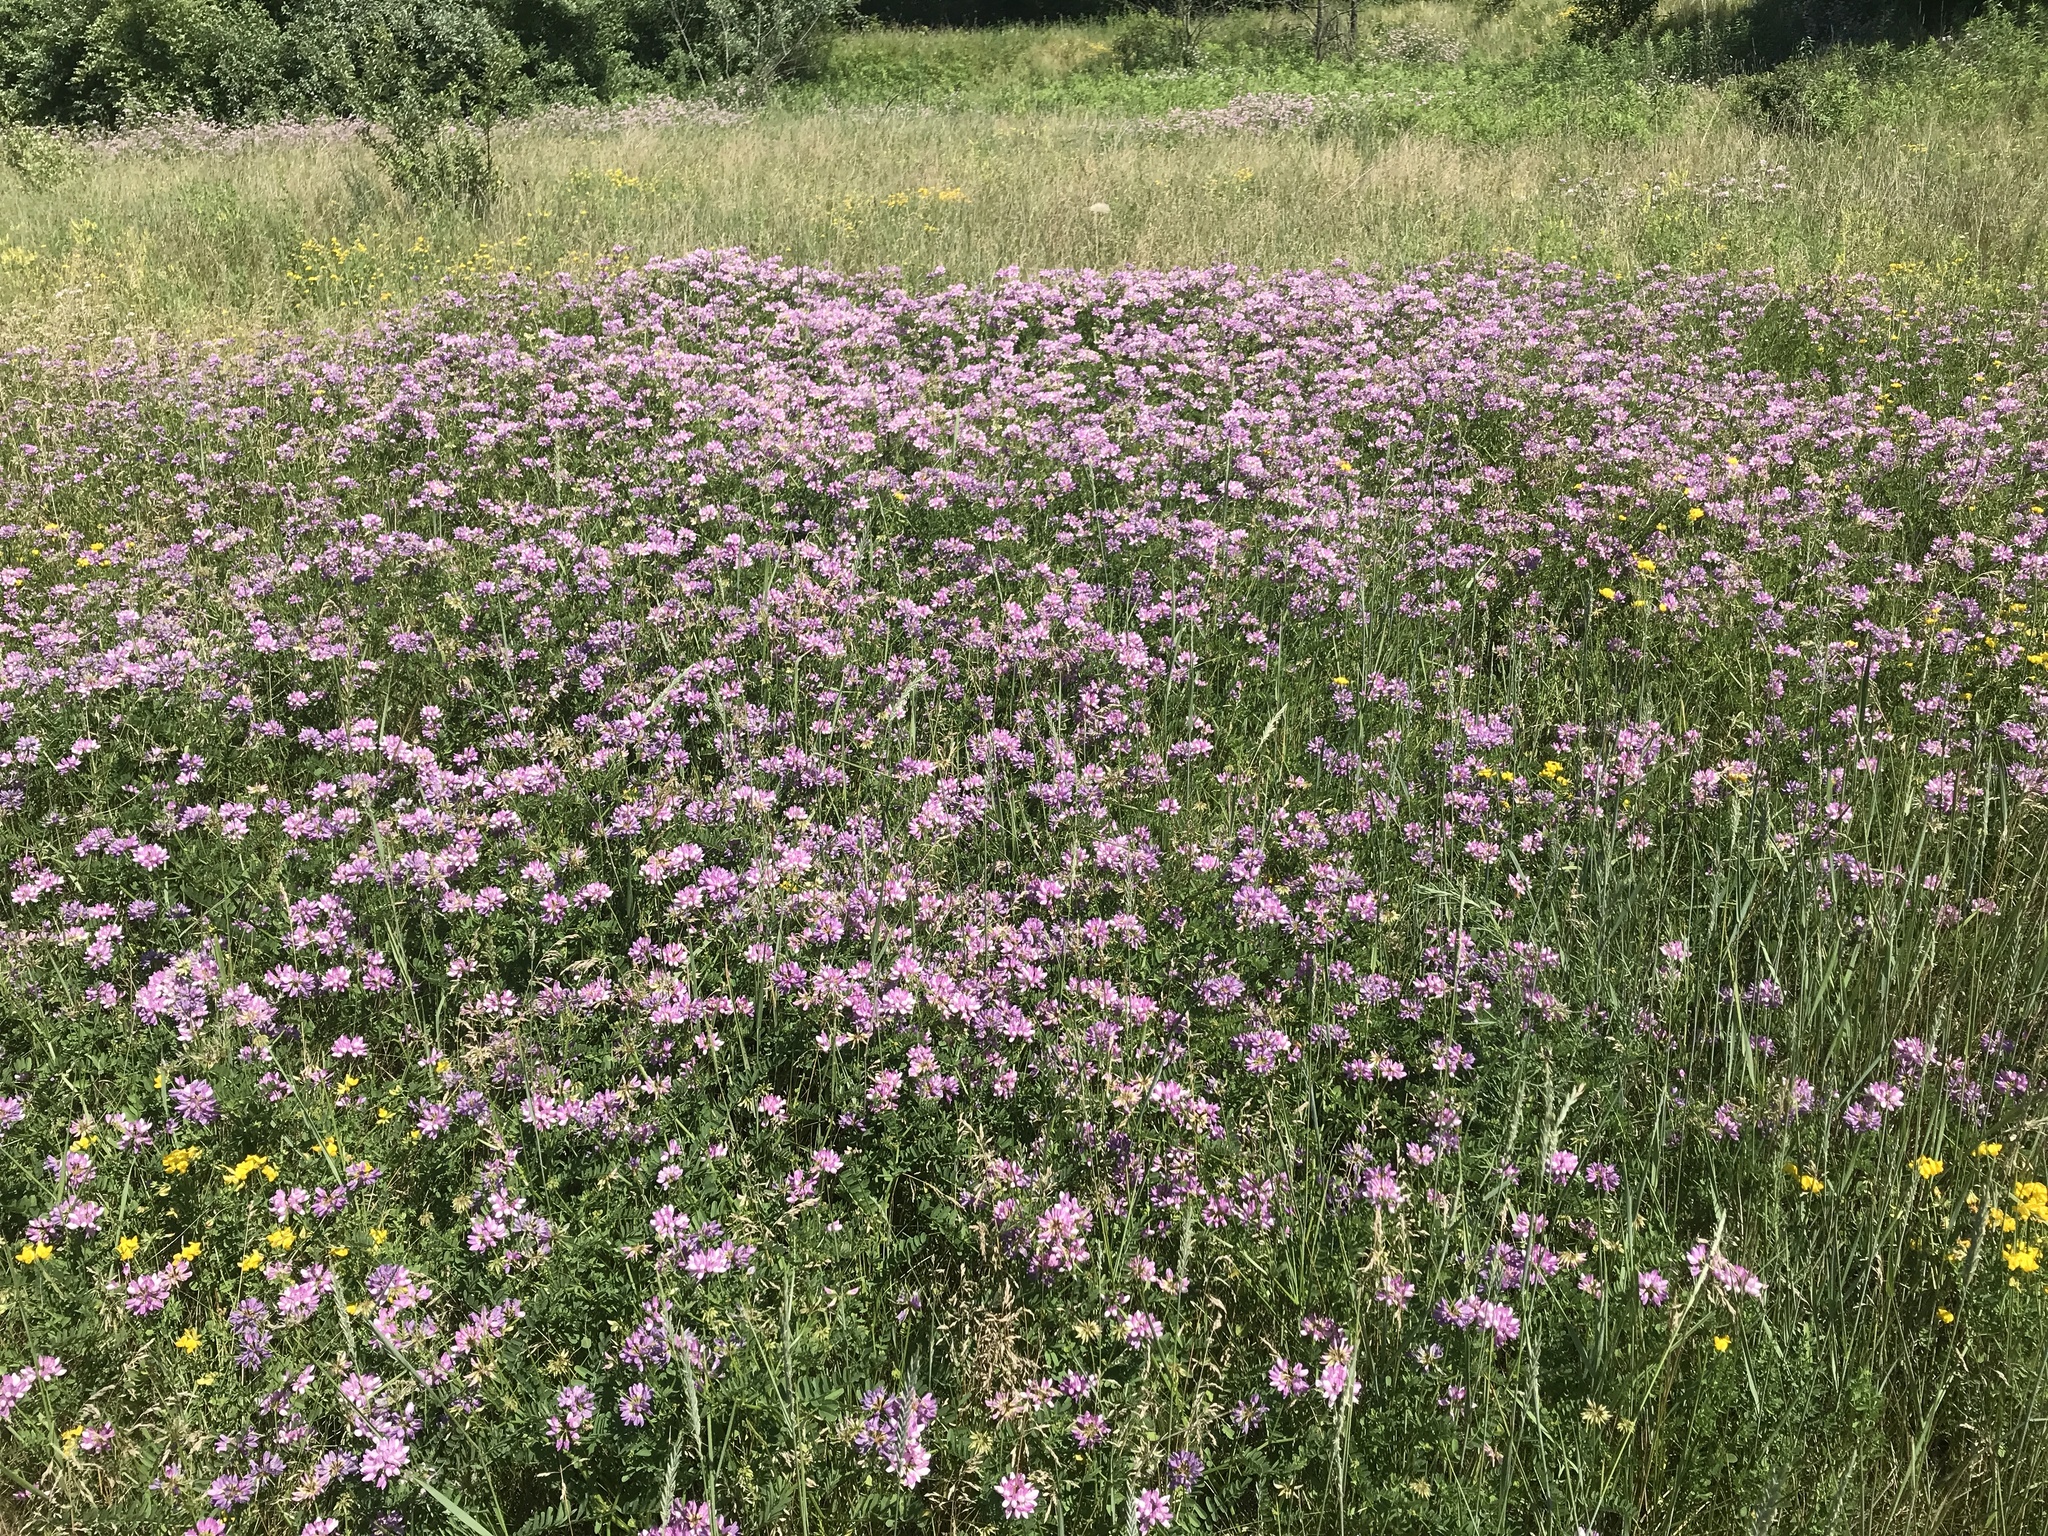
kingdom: Plantae
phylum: Tracheophyta
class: Magnoliopsida
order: Fabales
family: Fabaceae
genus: Coronilla
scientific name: Coronilla varia
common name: Crownvetch
